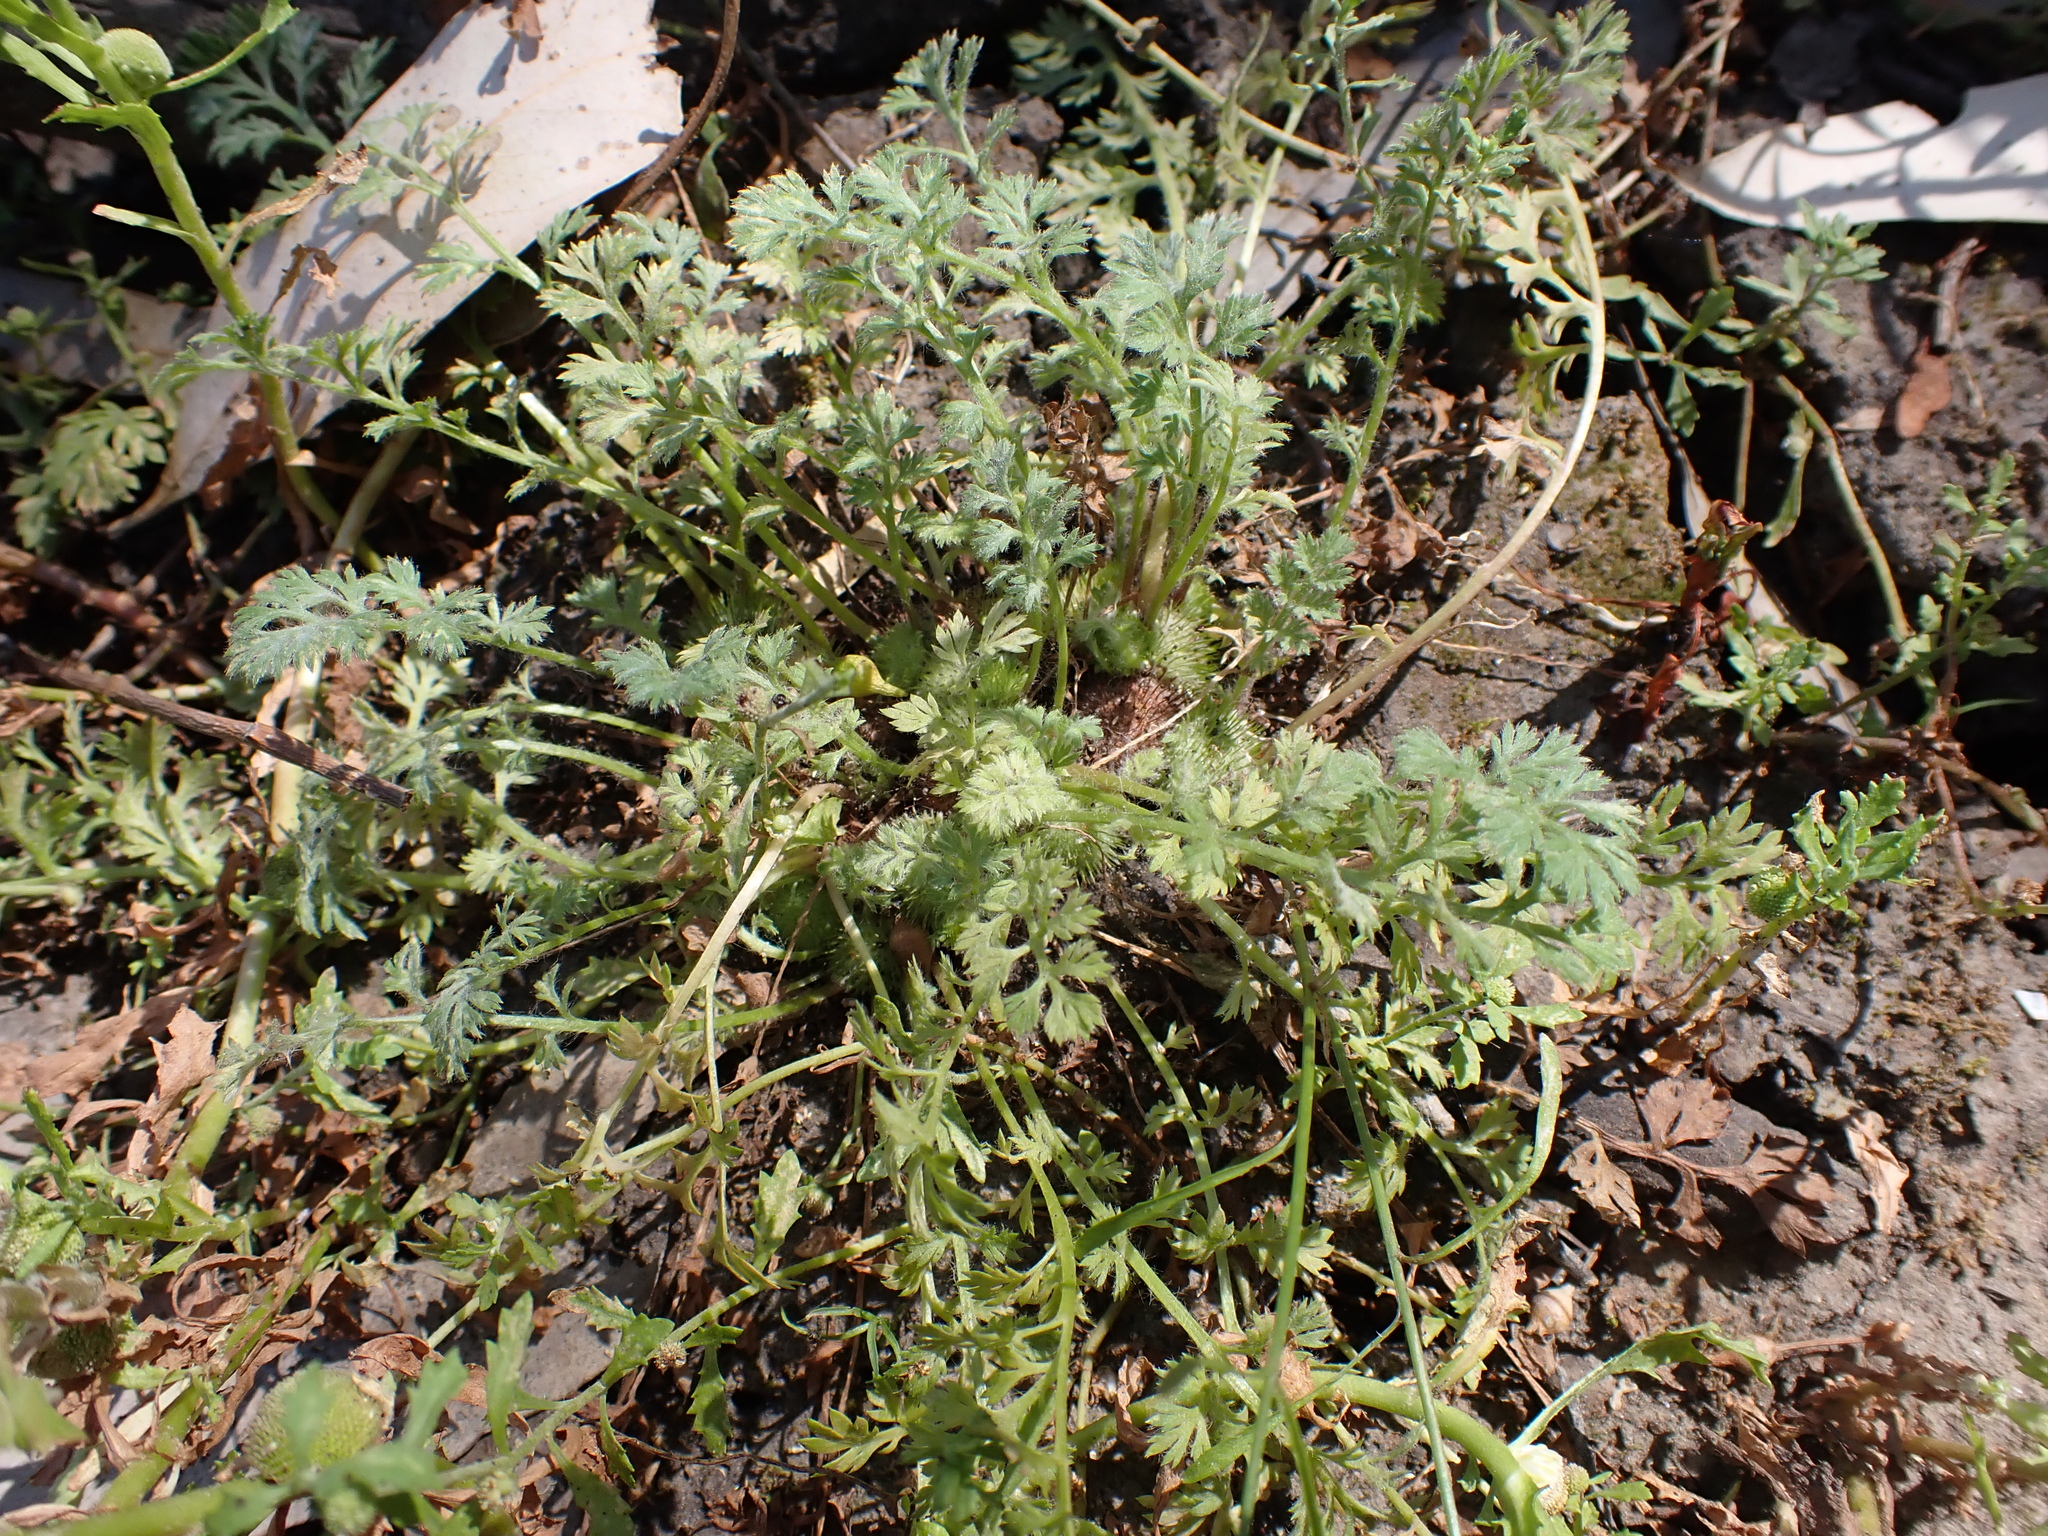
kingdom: Plantae
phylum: Tracheophyta
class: Magnoliopsida
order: Asterales
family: Asteraceae
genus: Soliva
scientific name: Soliva anthemifolia
